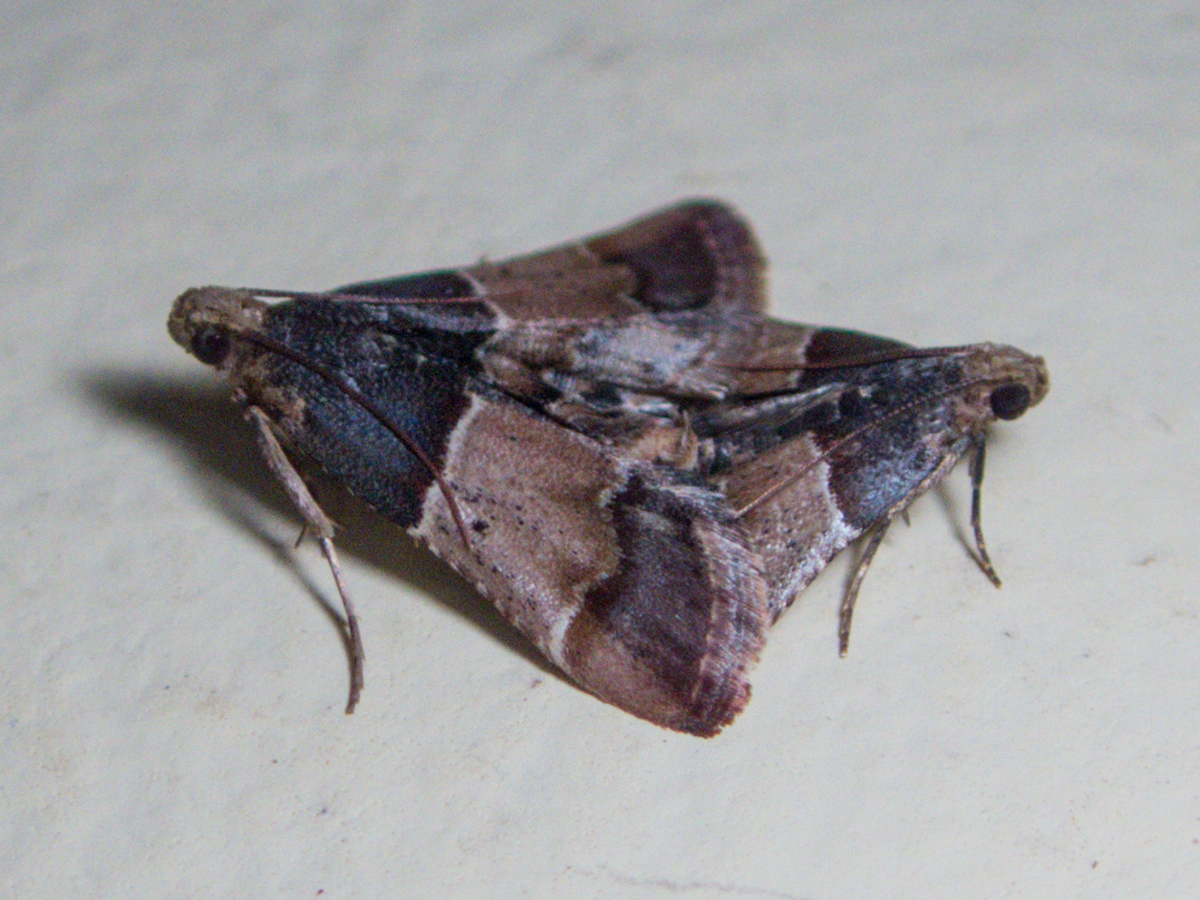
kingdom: Animalia
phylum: Arthropoda
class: Insecta
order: Lepidoptera
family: Pyralidae
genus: Pyralis
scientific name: Pyralis pictalis
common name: Painted meal moth
